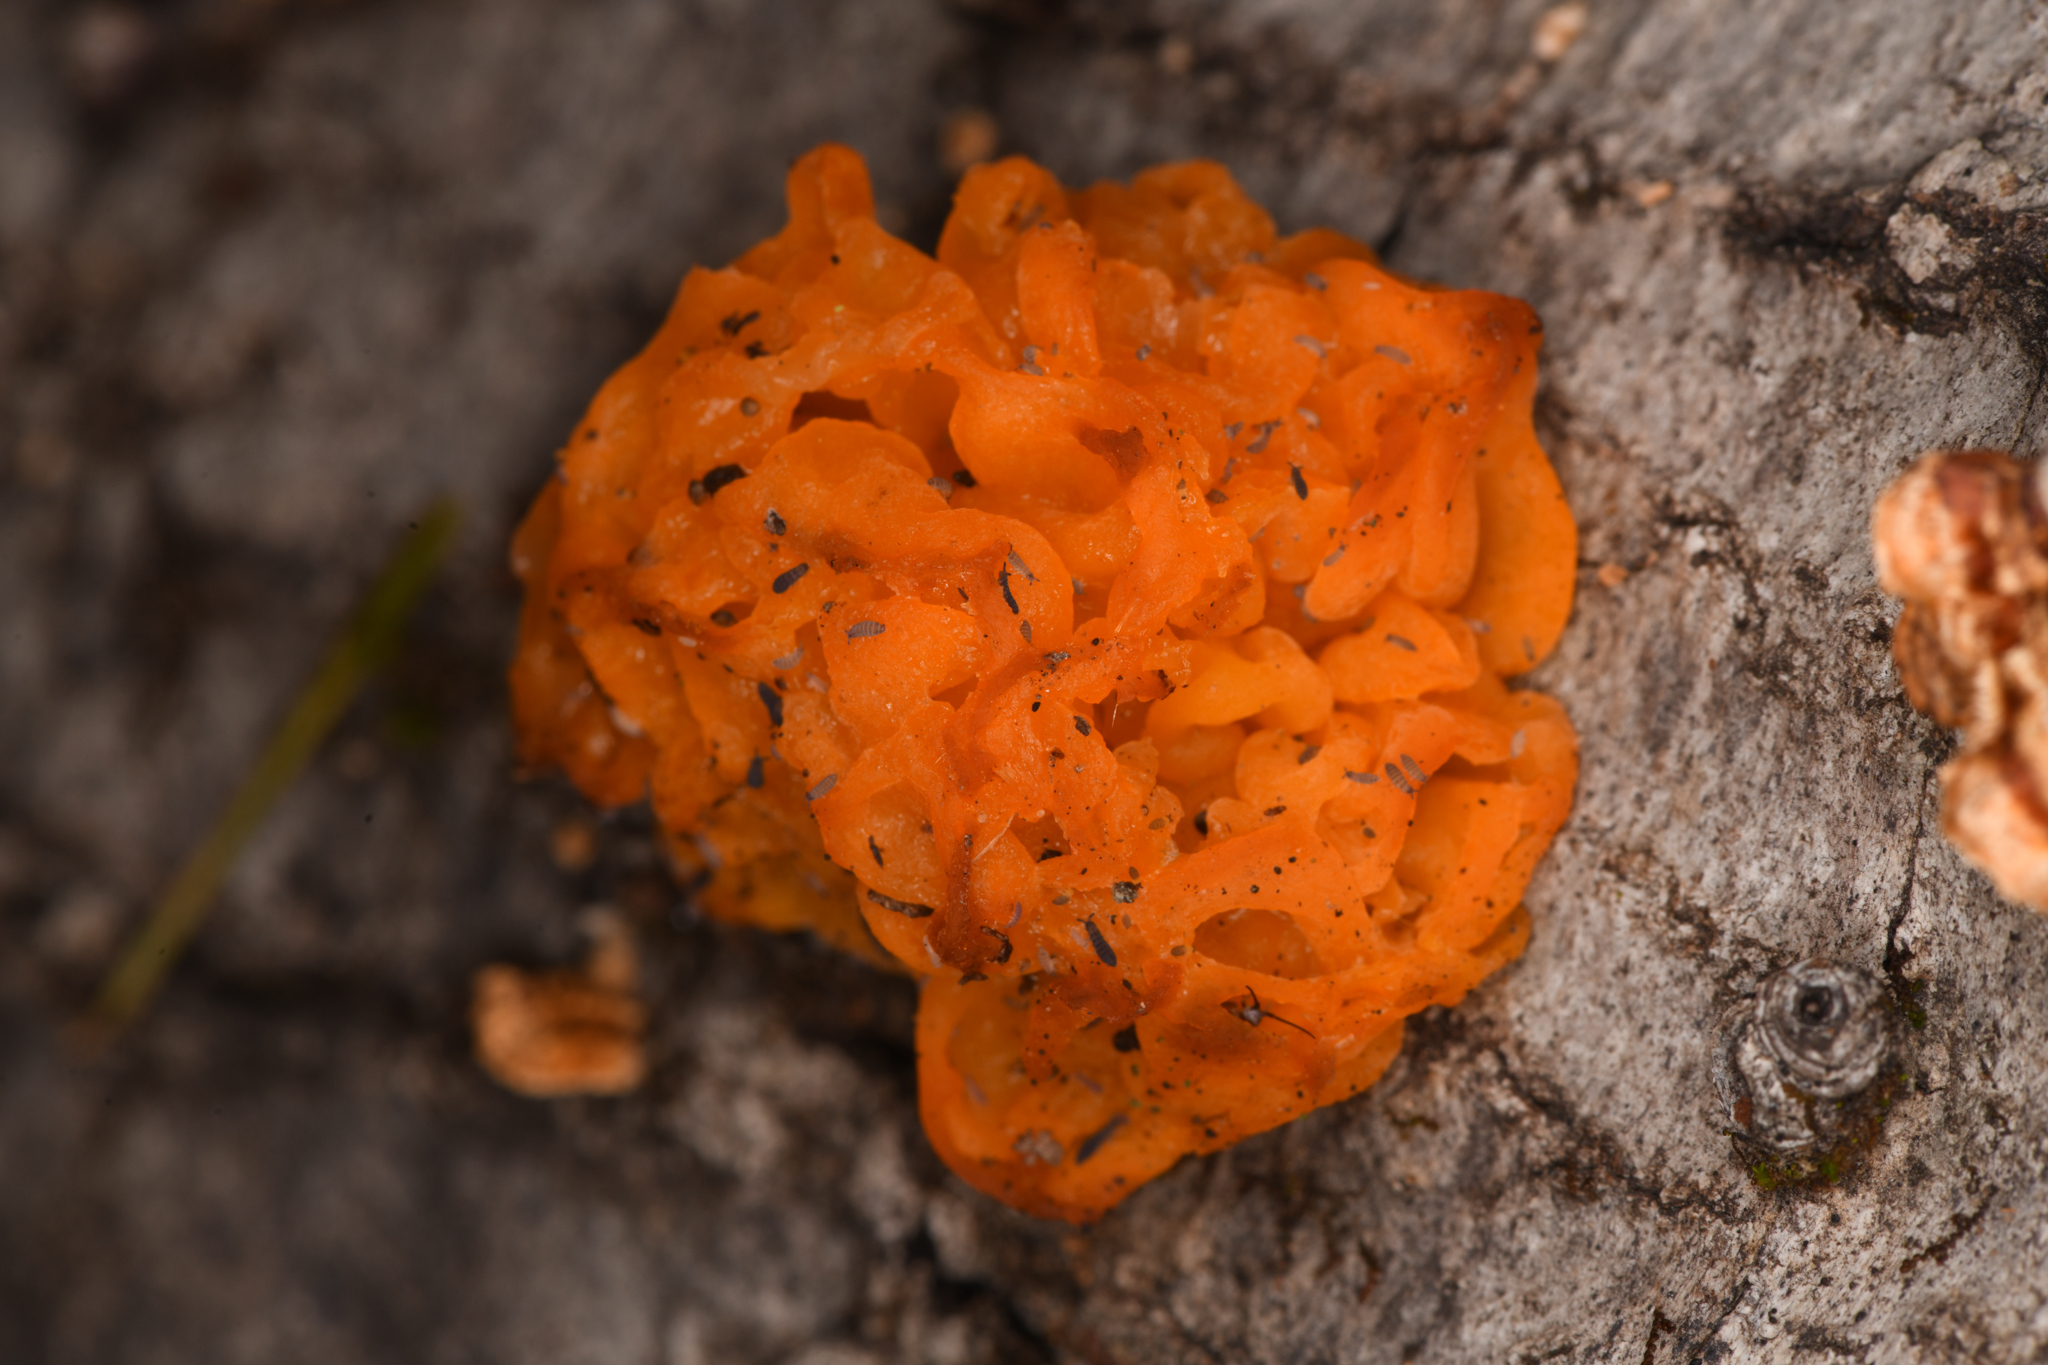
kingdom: Fungi
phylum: Basidiomycota
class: Tremellomycetes
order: Tremellales
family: Naemateliaceae
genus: Naematelia
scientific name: Naematelia aurantia
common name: Golden ear
